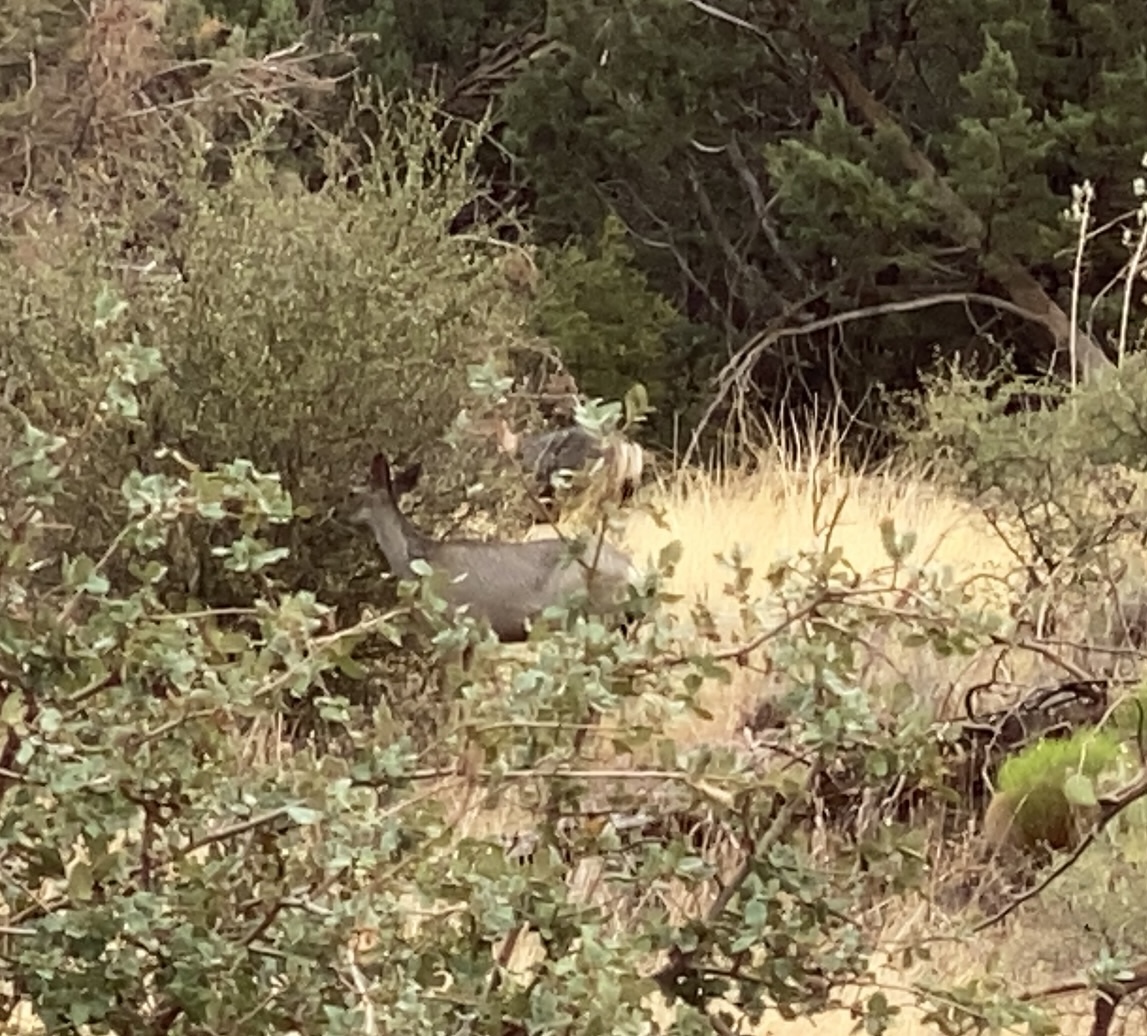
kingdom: Animalia
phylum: Chordata
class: Mammalia
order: Artiodactyla
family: Cervidae
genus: Odocoileus
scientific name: Odocoileus hemionus
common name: Mule deer
